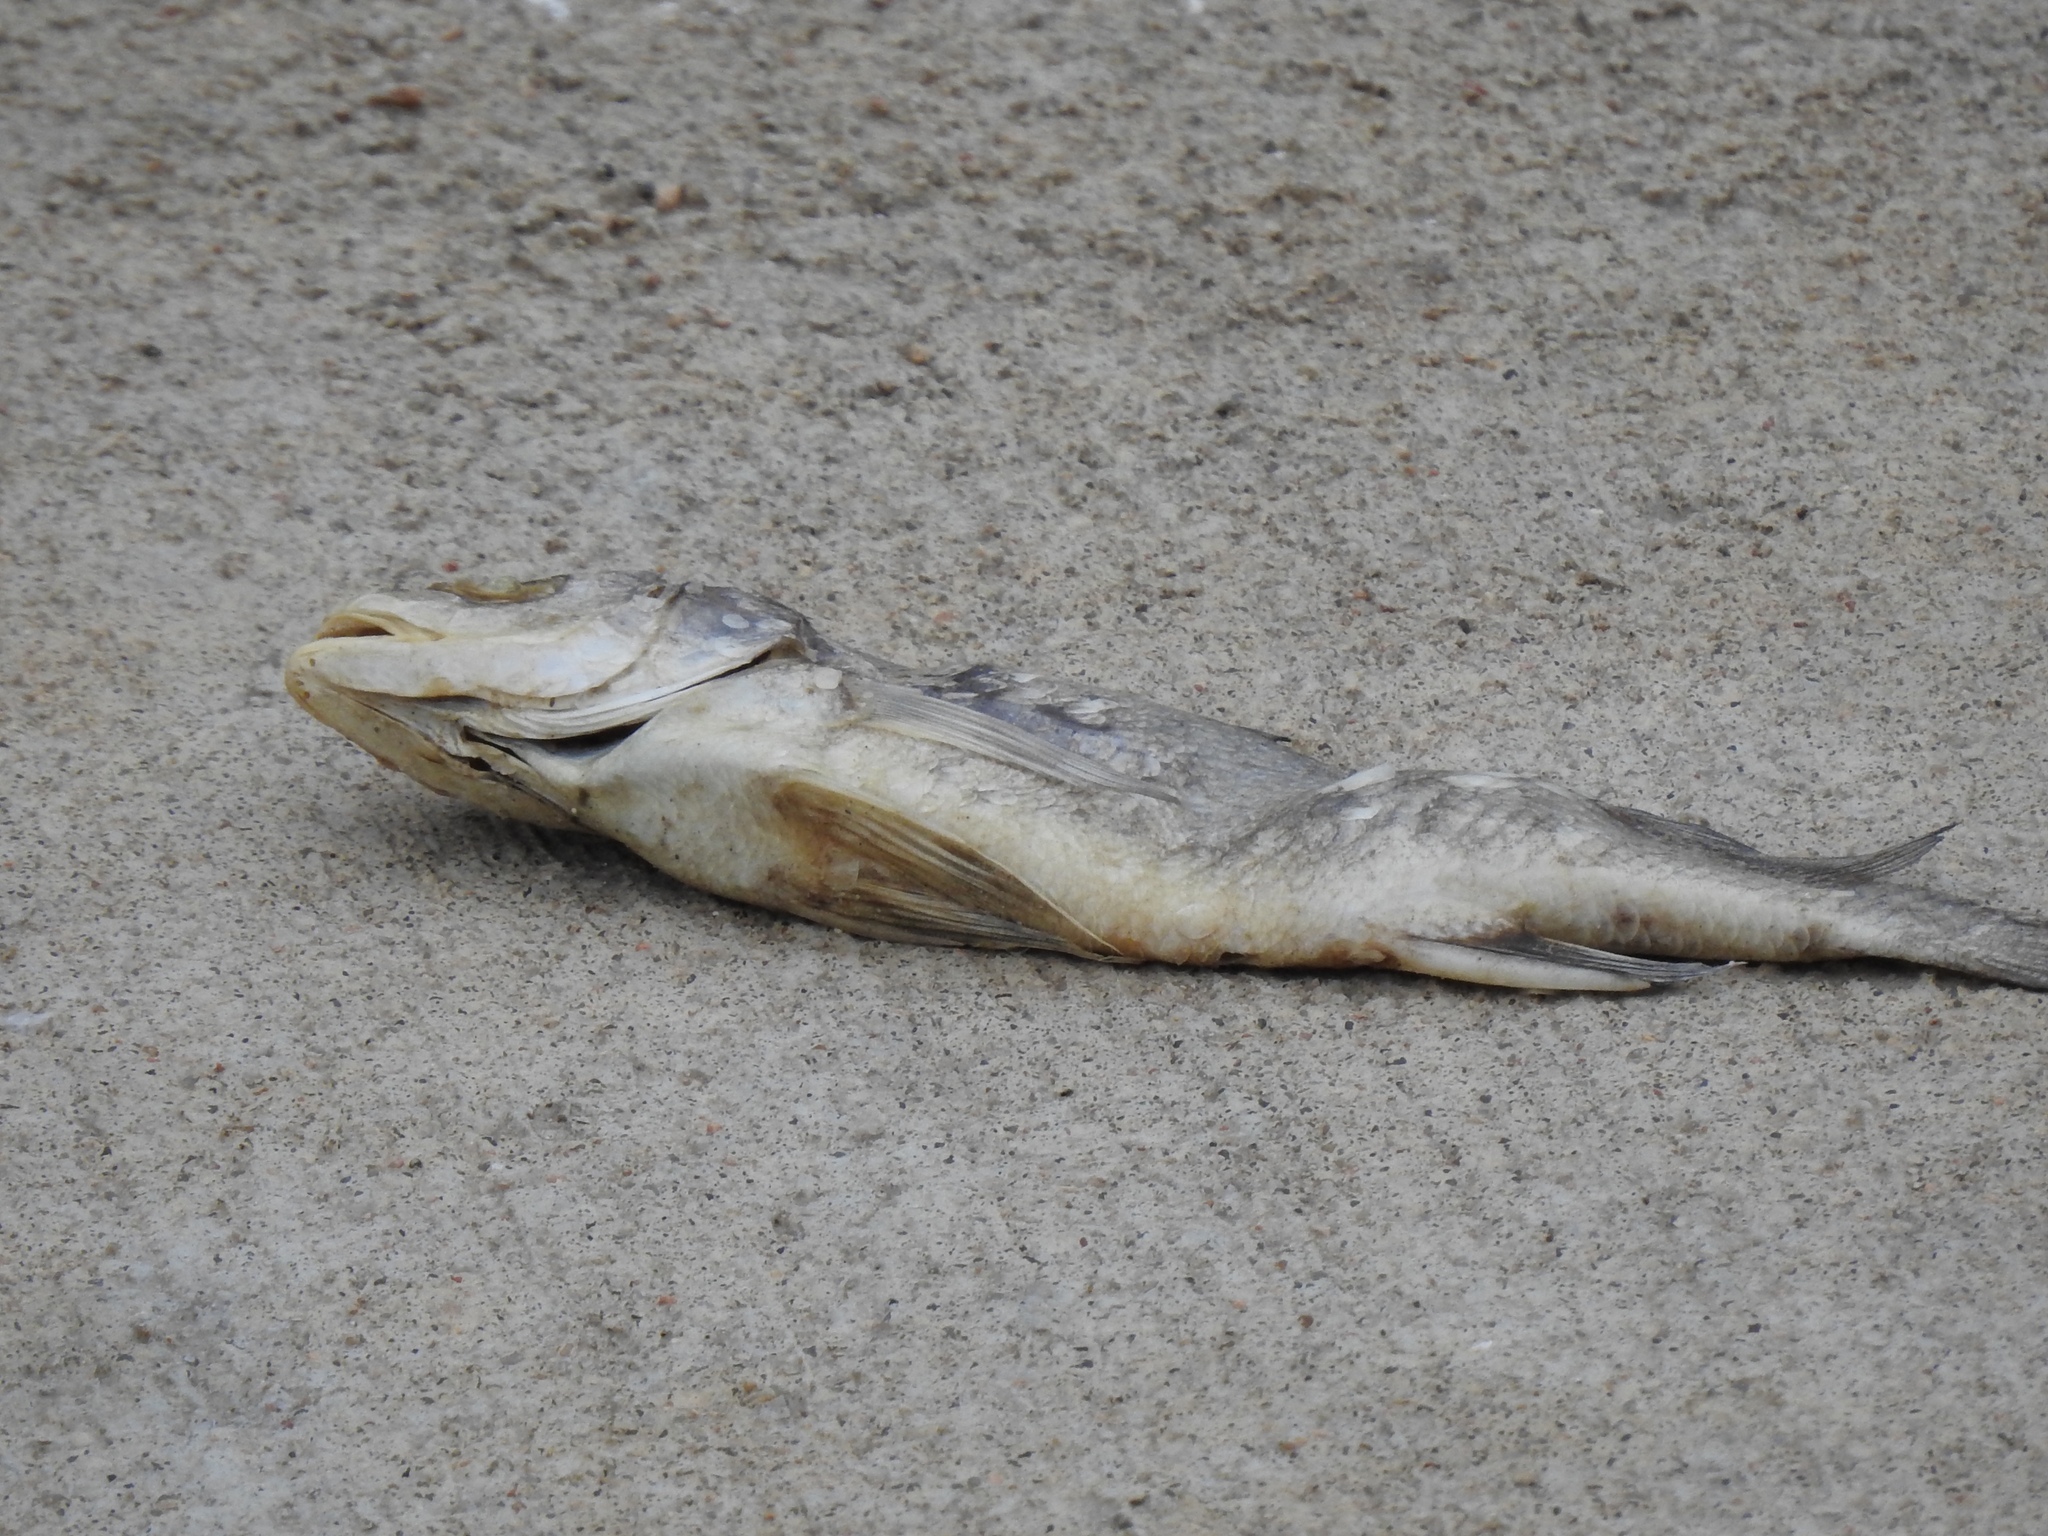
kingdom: Animalia
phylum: Chordata
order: Perciformes
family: Sciaenidae
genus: Aplodinotus
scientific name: Aplodinotus grunniens
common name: Freshwater drum
